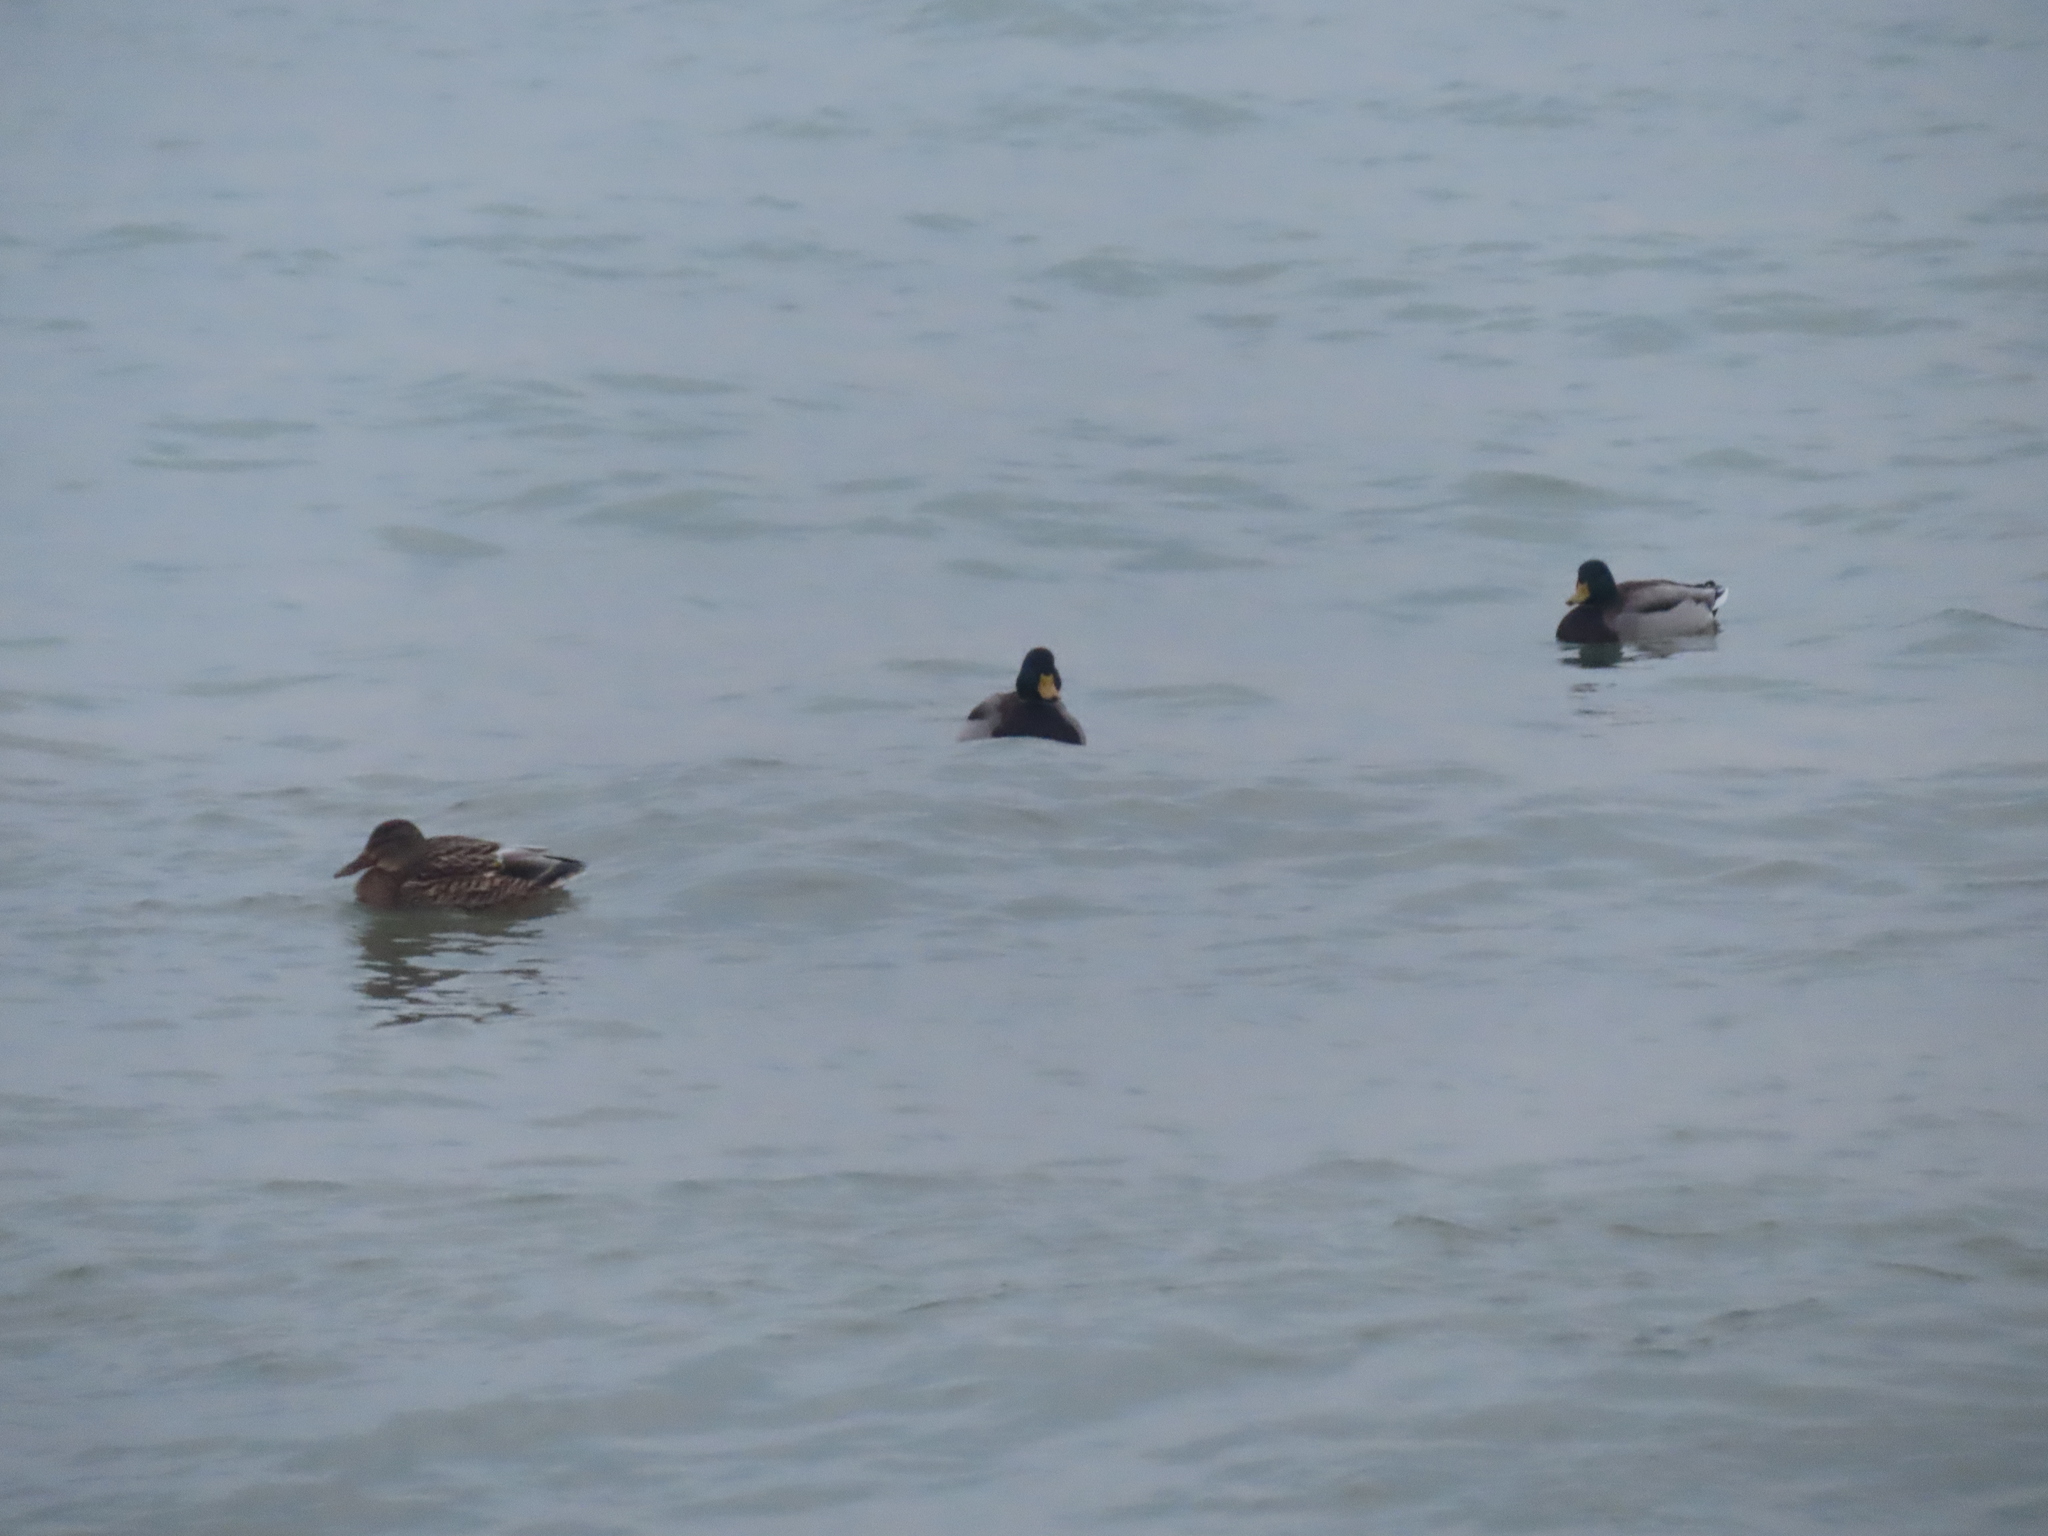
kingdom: Animalia
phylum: Chordata
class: Aves
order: Anseriformes
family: Anatidae
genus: Anas
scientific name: Anas platyrhynchos
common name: Mallard
